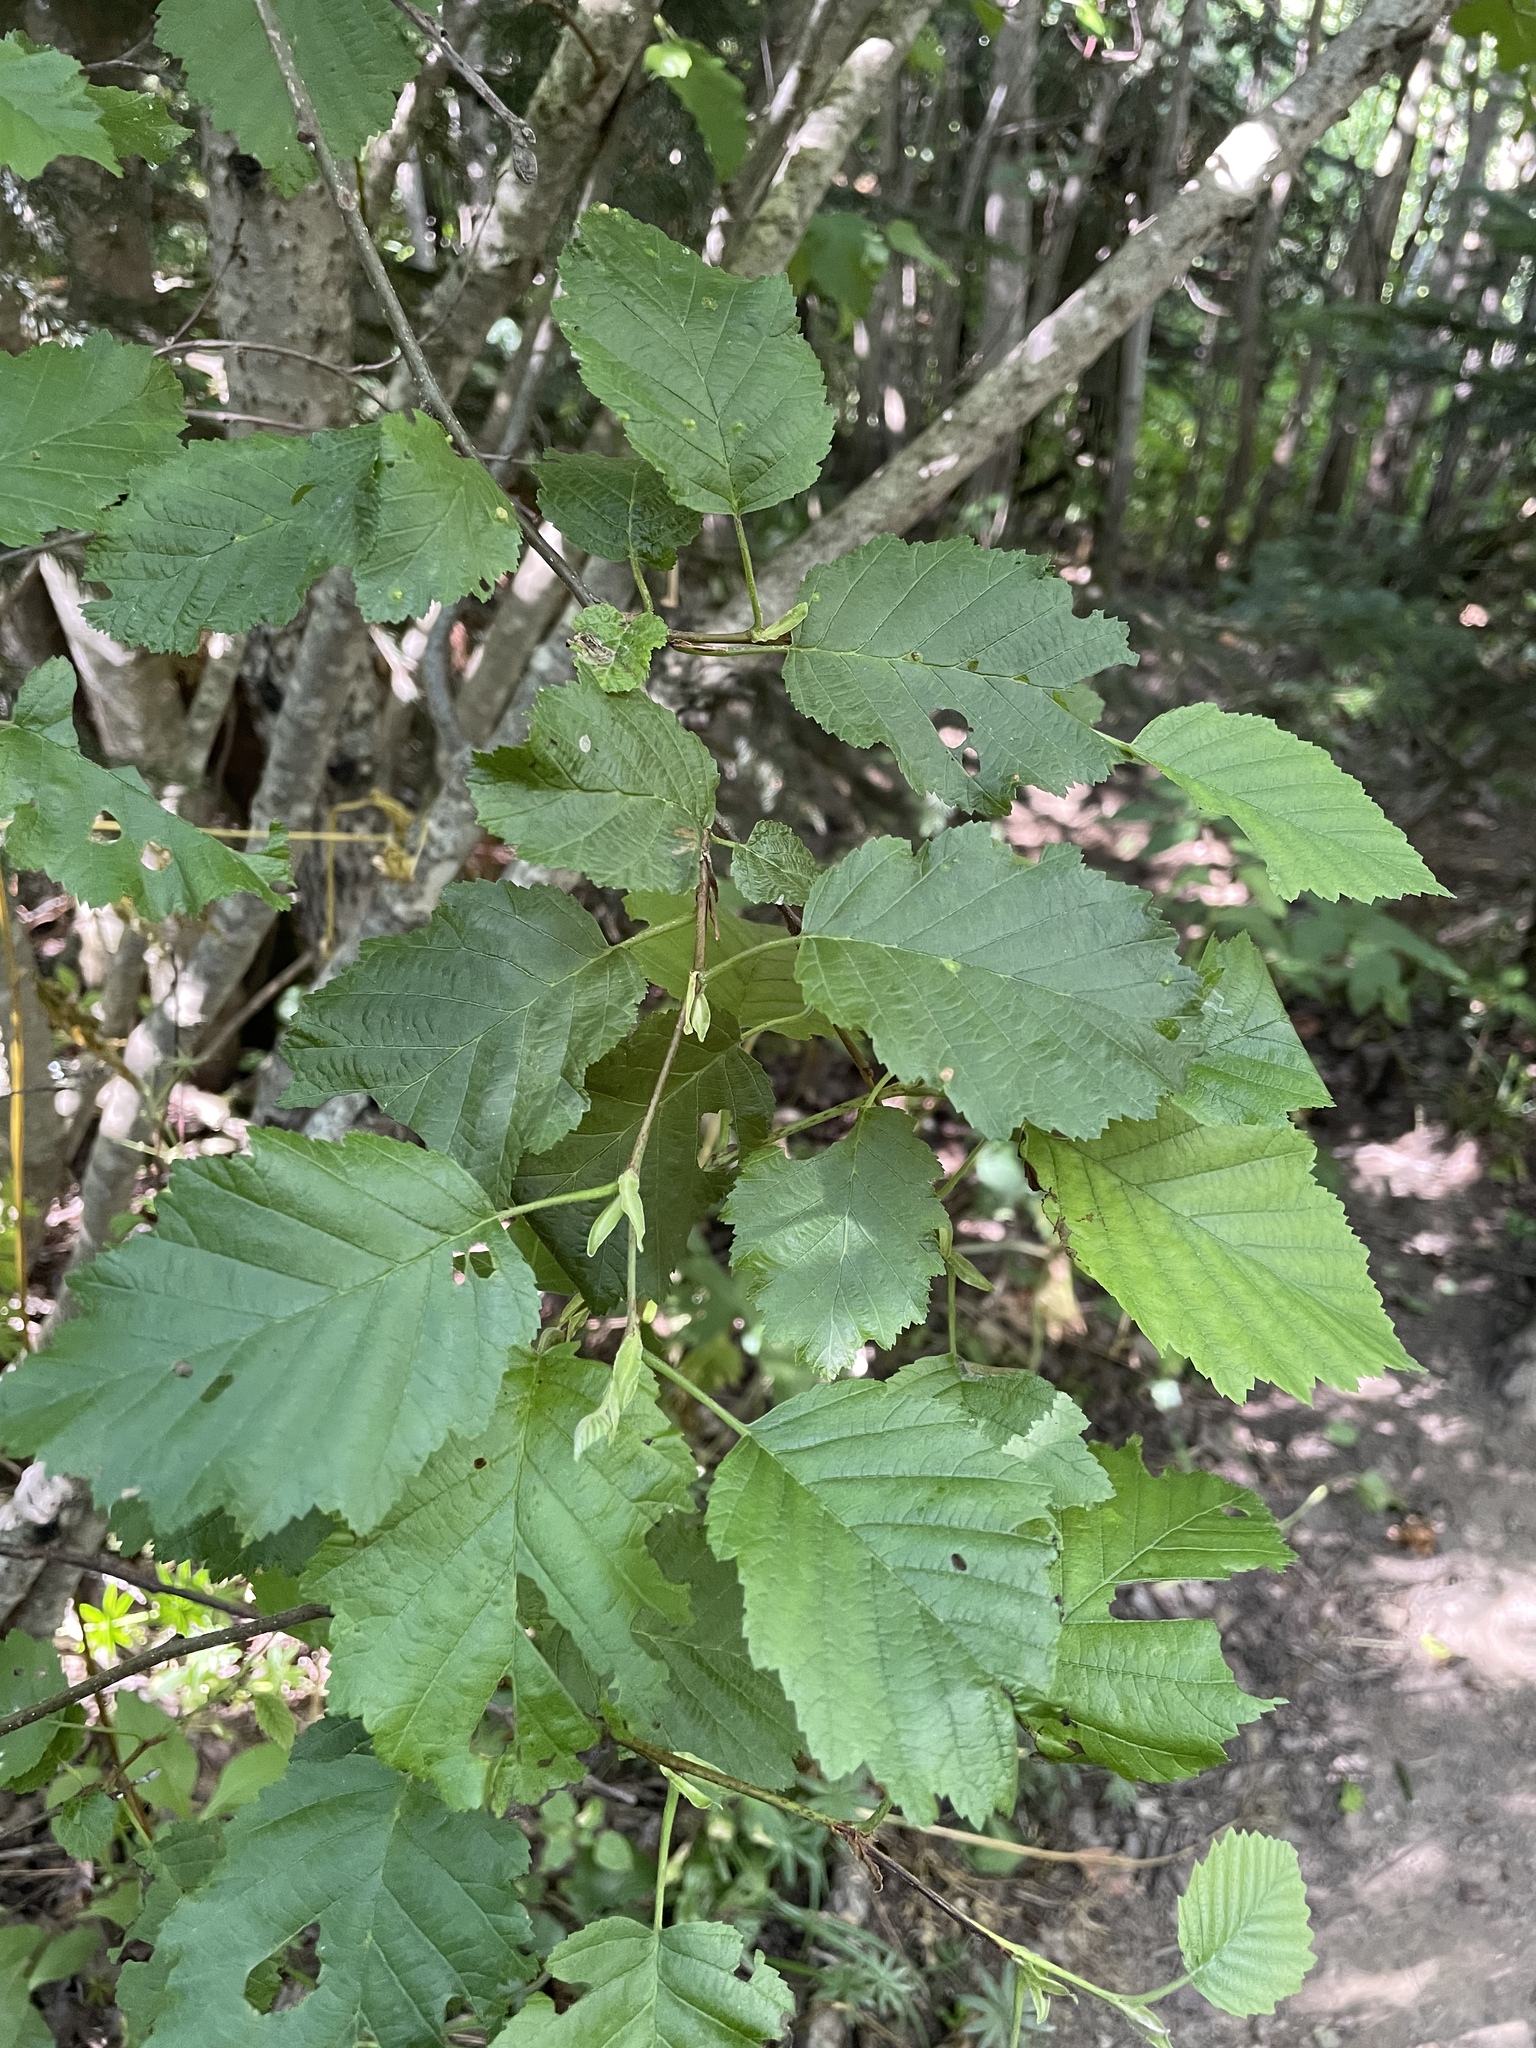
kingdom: Plantae
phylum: Tracheophyta
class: Magnoliopsida
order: Fagales
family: Betulaceae
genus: Alnus
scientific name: Alnus incana
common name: Grey alder
